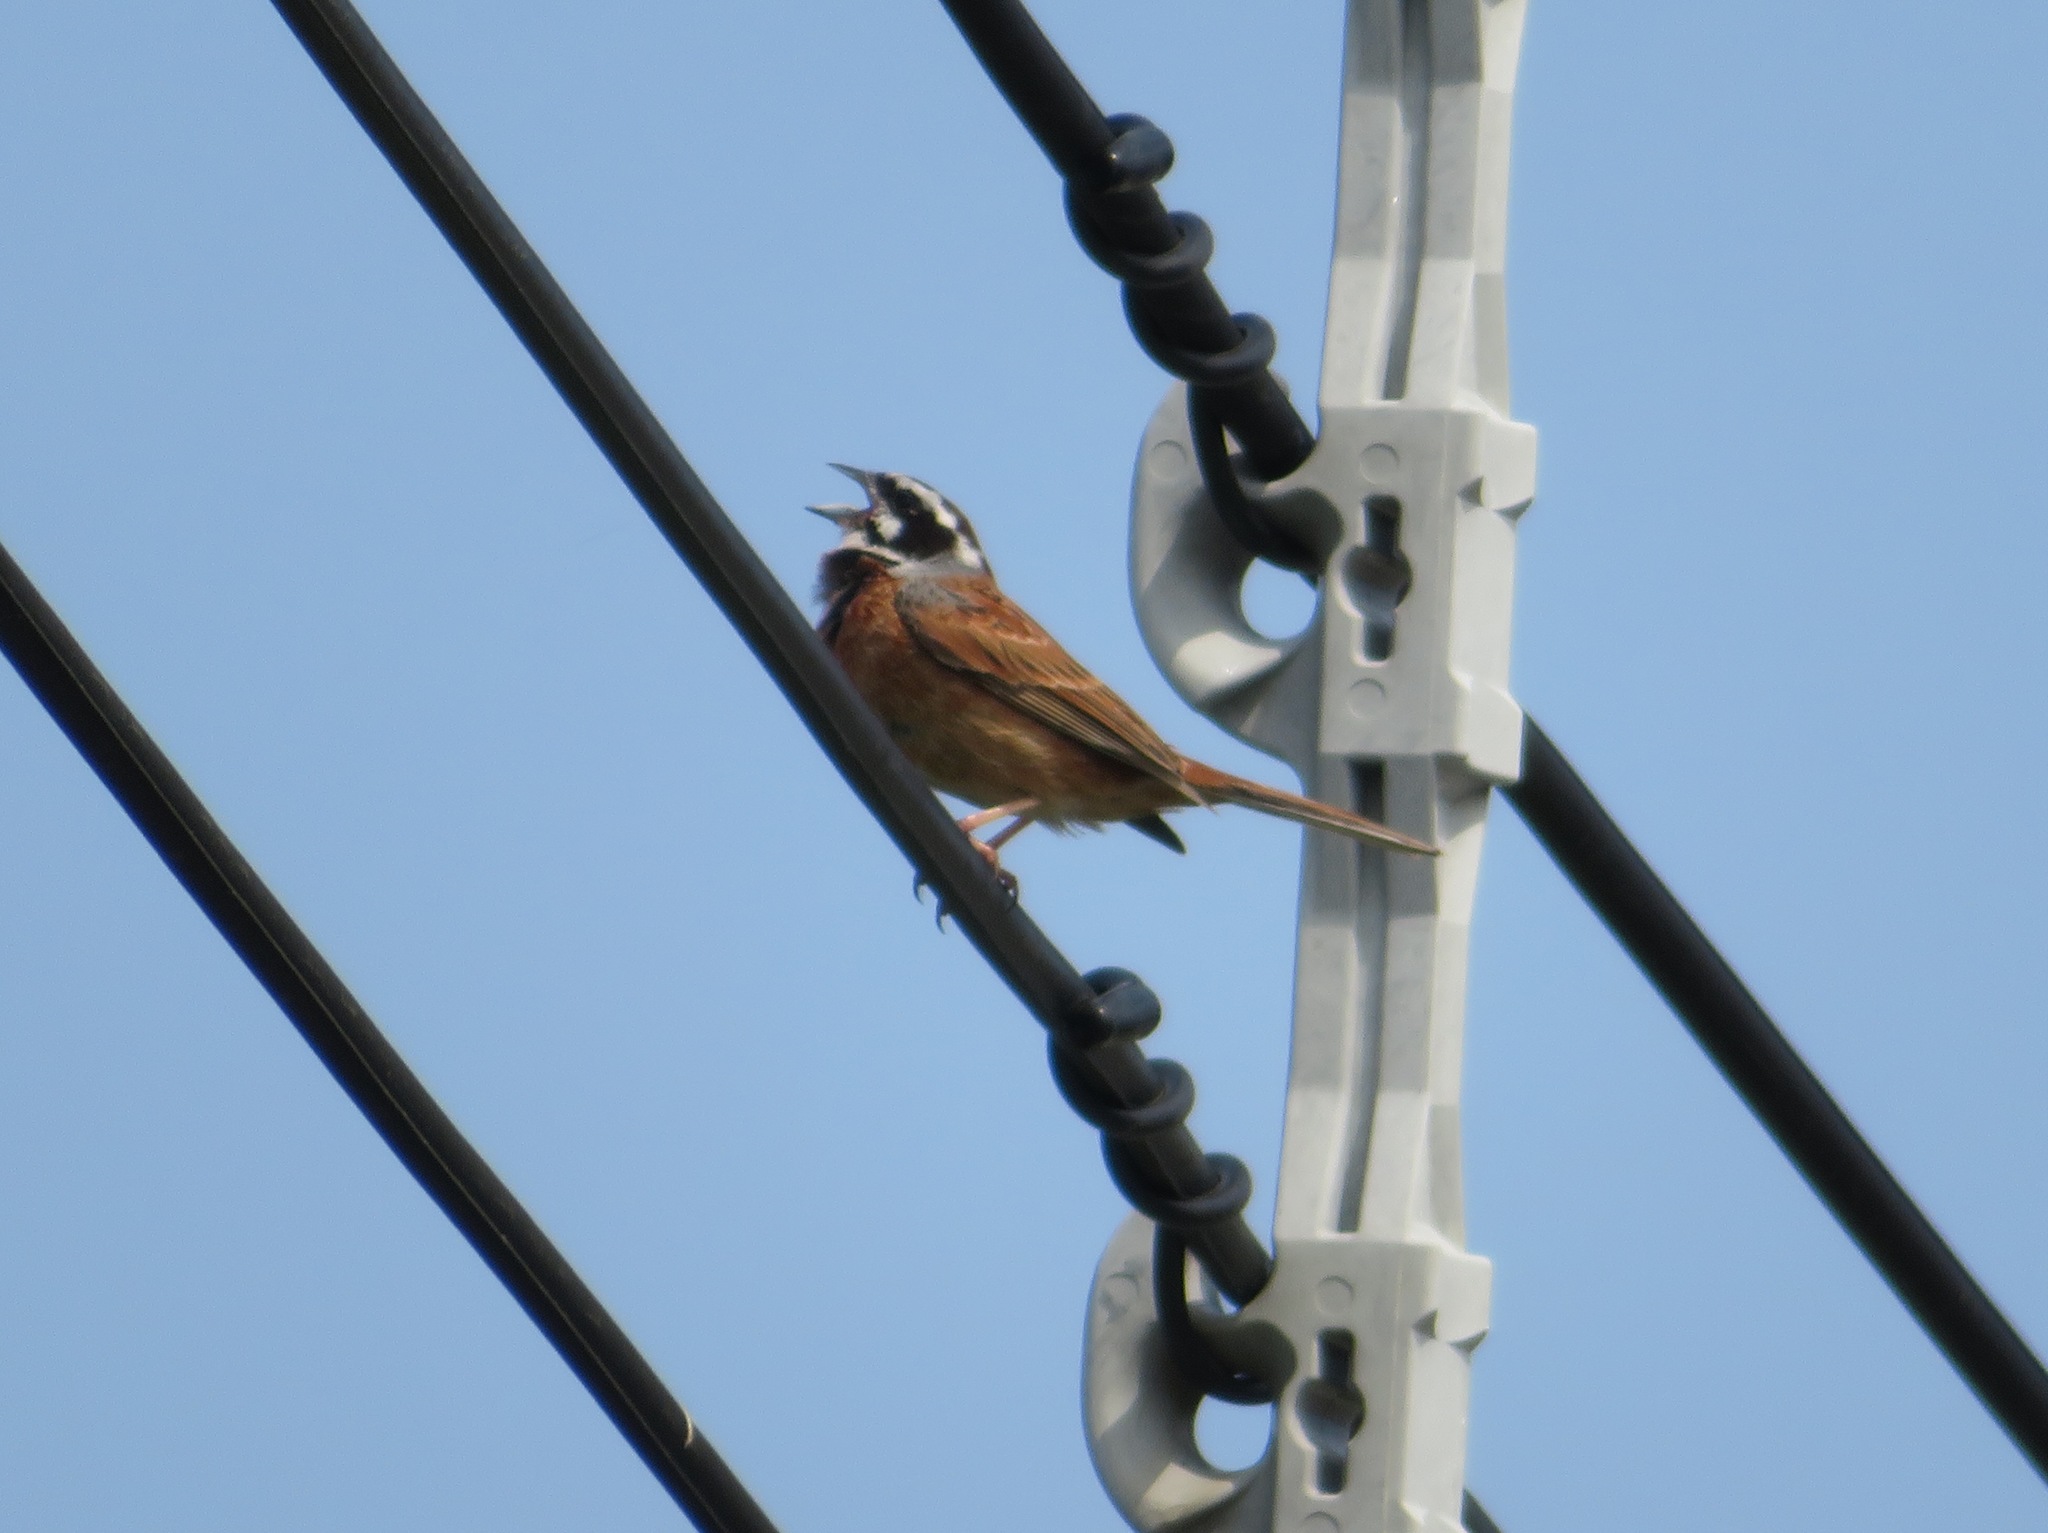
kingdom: Animalia
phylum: Chordata
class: Aves
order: Passeriformes
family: Emberizidae
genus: Emberiza
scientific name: Emberiza cioides
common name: Meadow bunting
